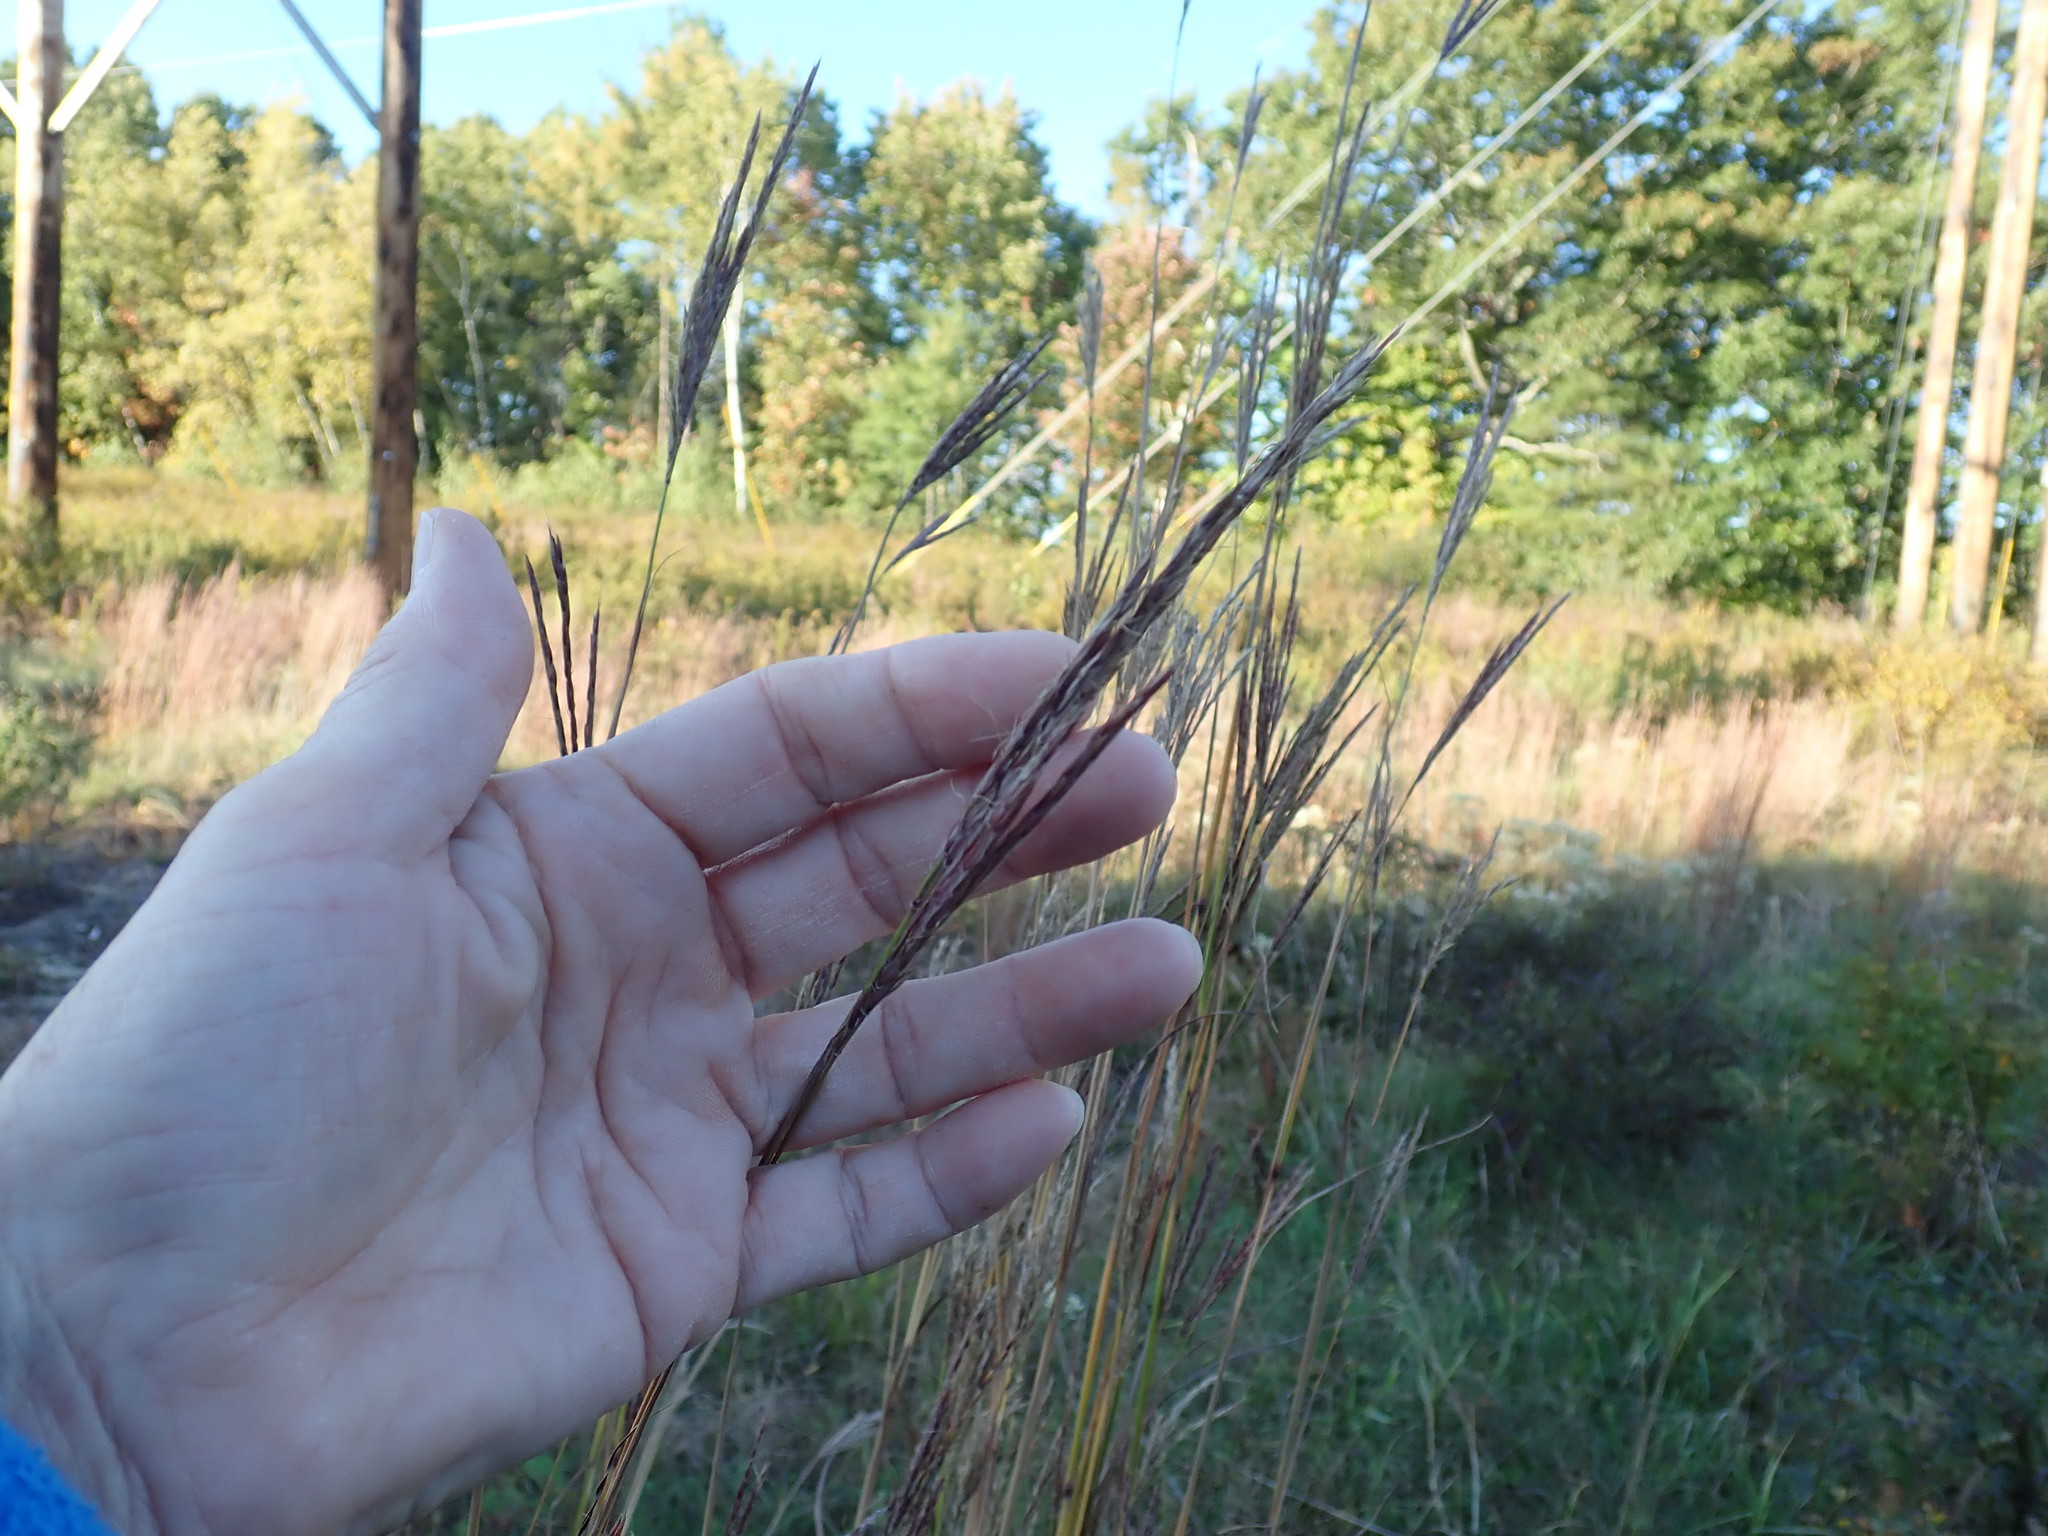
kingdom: Plantae
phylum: Tracheophyta
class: Liliopsida
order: Poales
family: Poaceae
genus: Andropogon
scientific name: Andropogon gerardi
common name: Big bluestem
